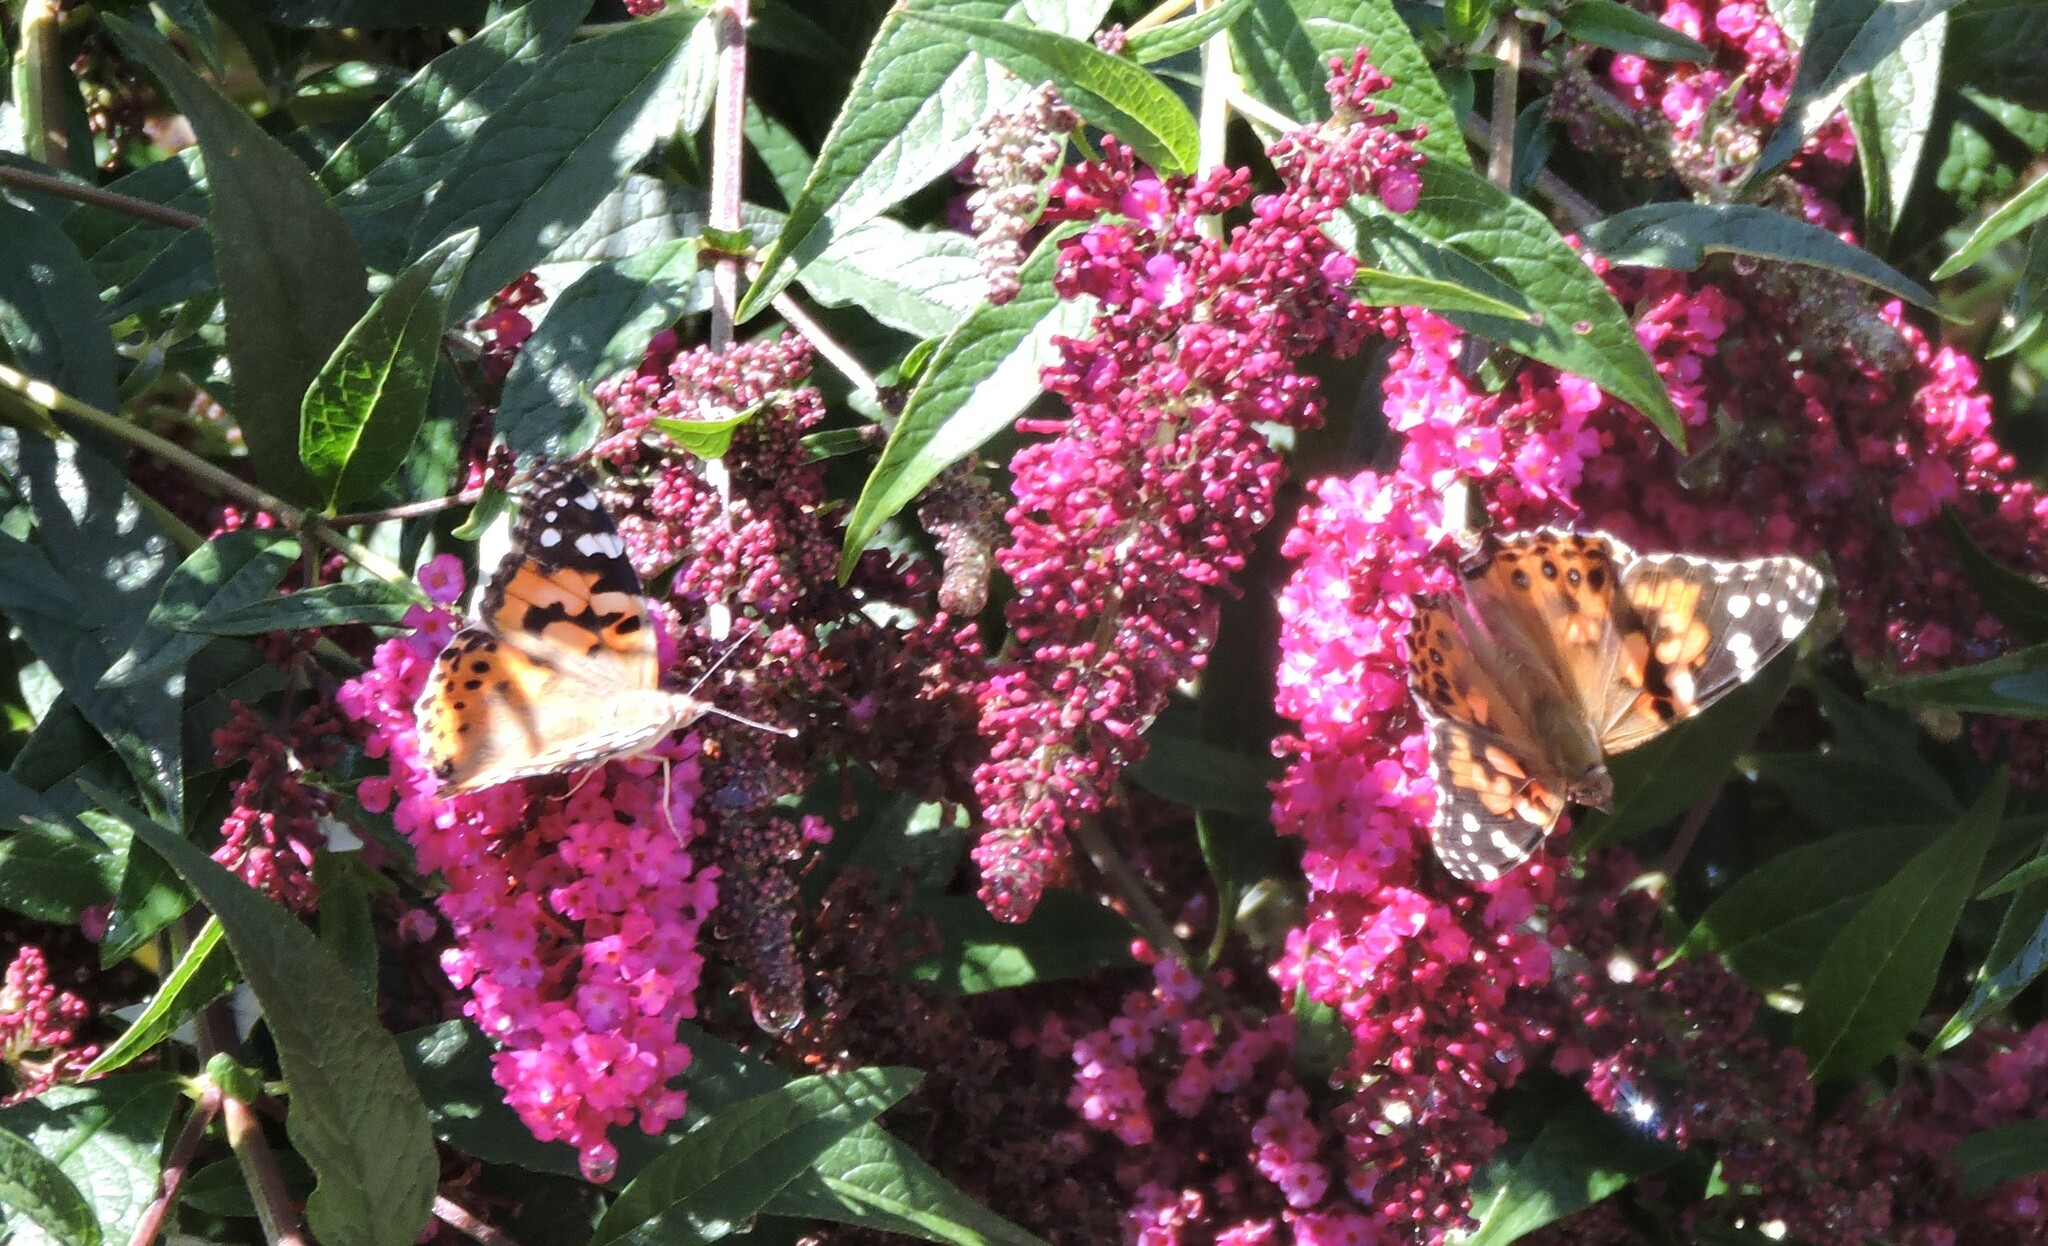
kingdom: Animalia
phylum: Arthropoda
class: Insecta
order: Lepidoptera
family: Nymphalidae
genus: Vanessa
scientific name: Vanessa cardui
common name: Painted lady
